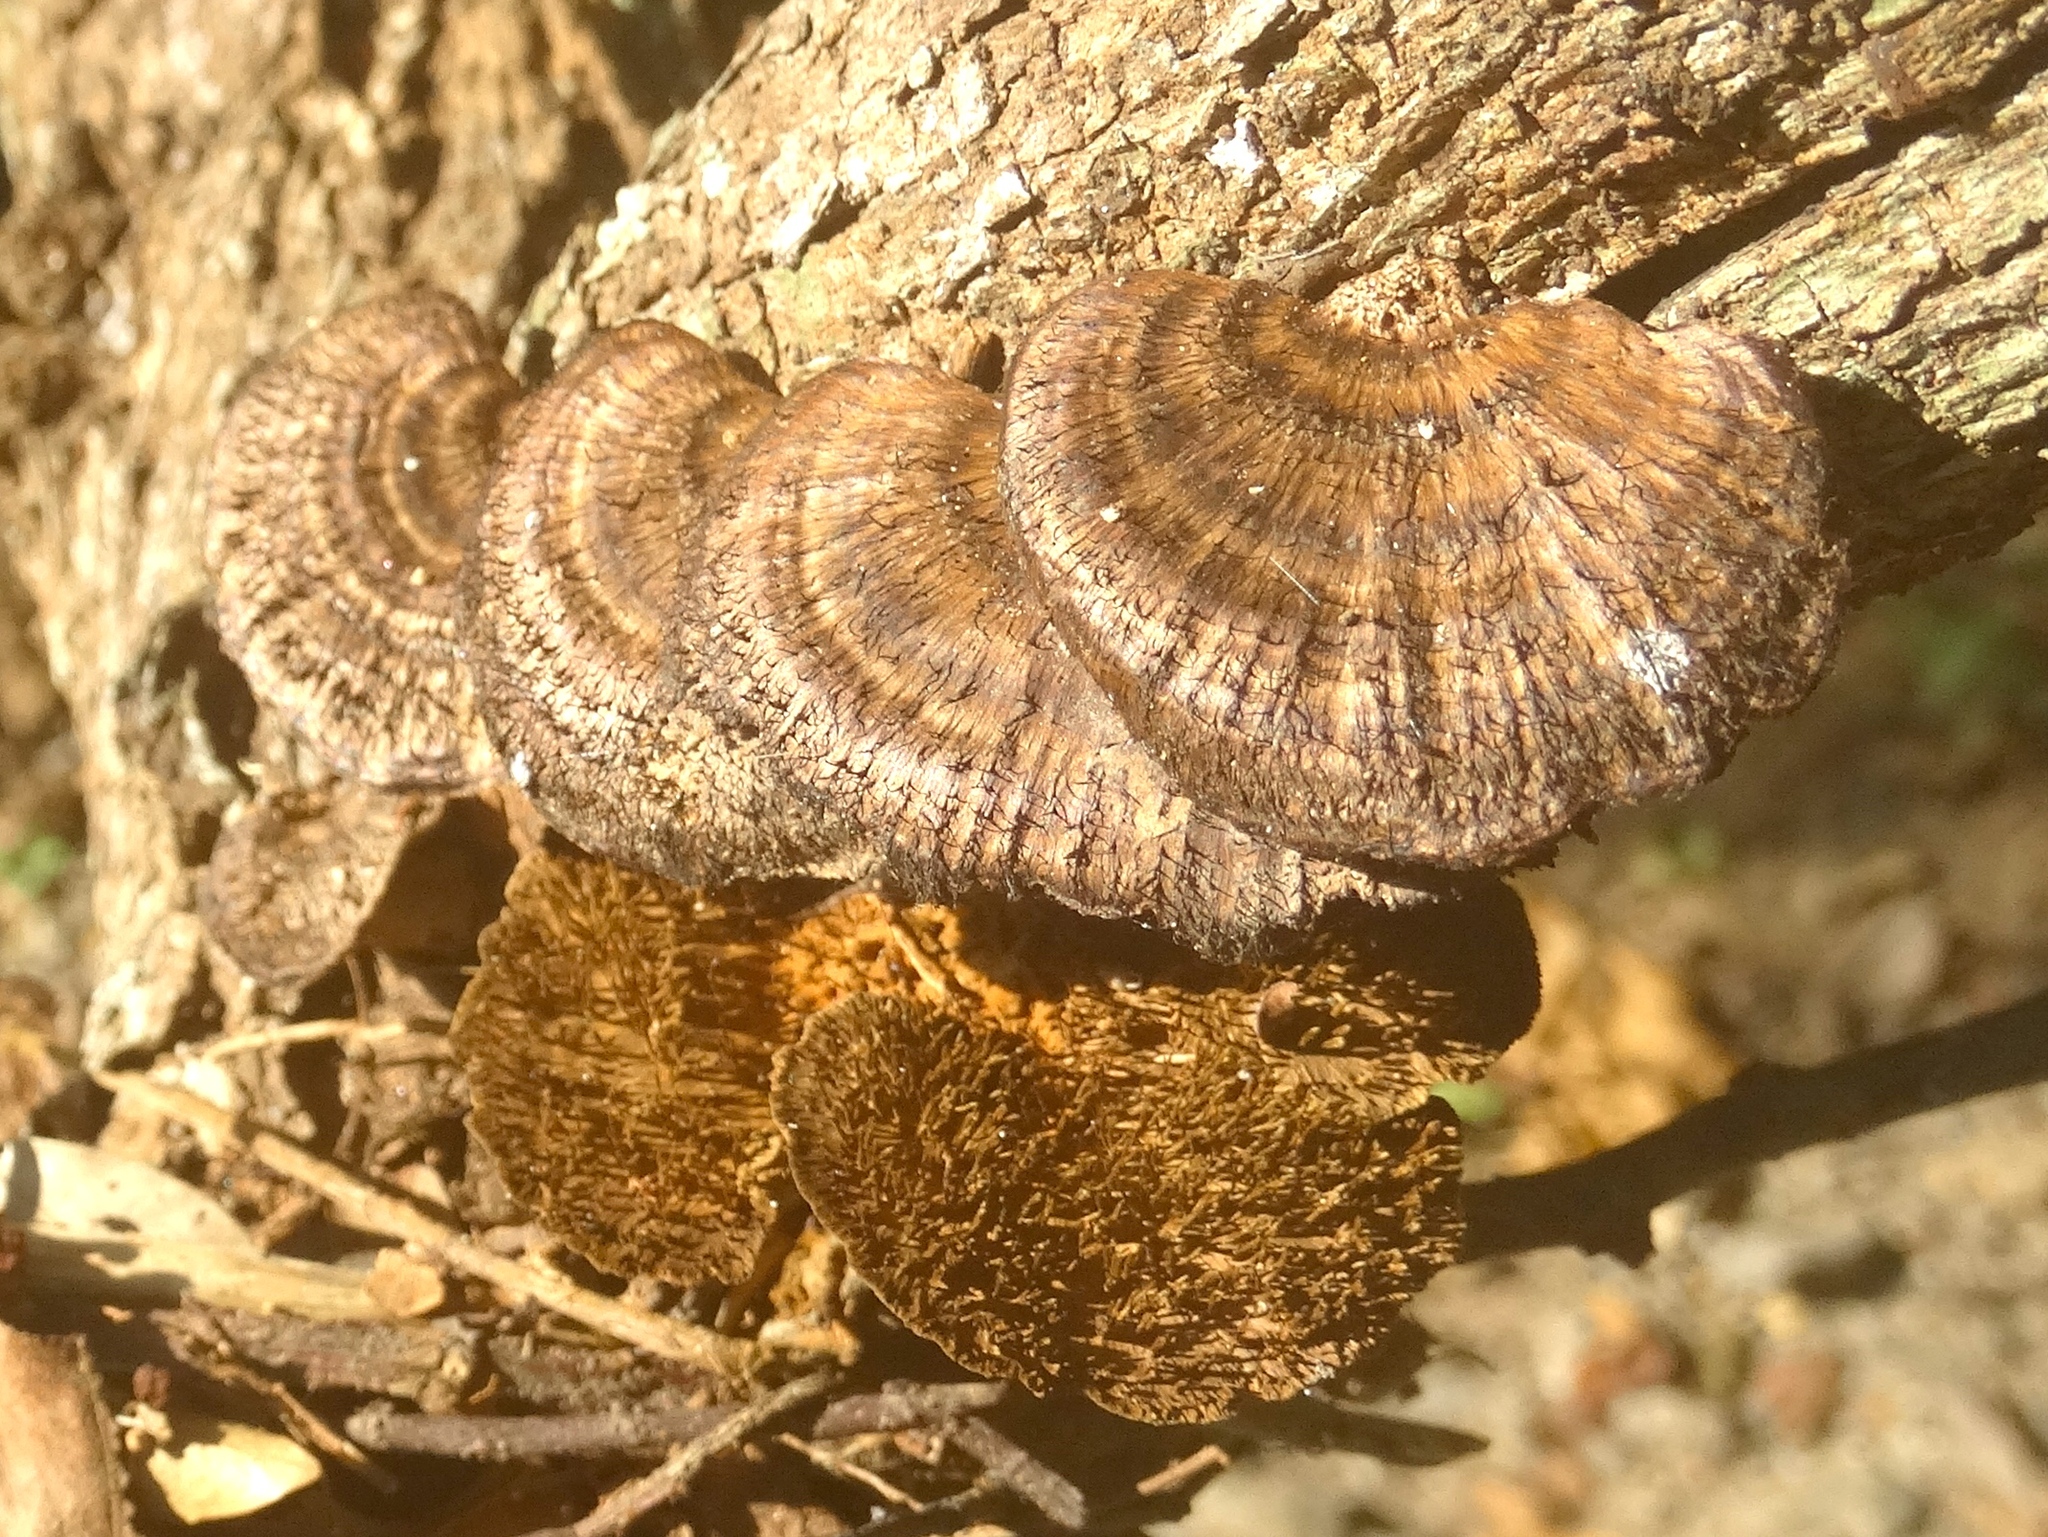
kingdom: Fungi
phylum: Basidiomycota
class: Agaricomycetes
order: Polyporales
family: Cerrenaceae
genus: Cerrena
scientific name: Cerrena hydnoides
